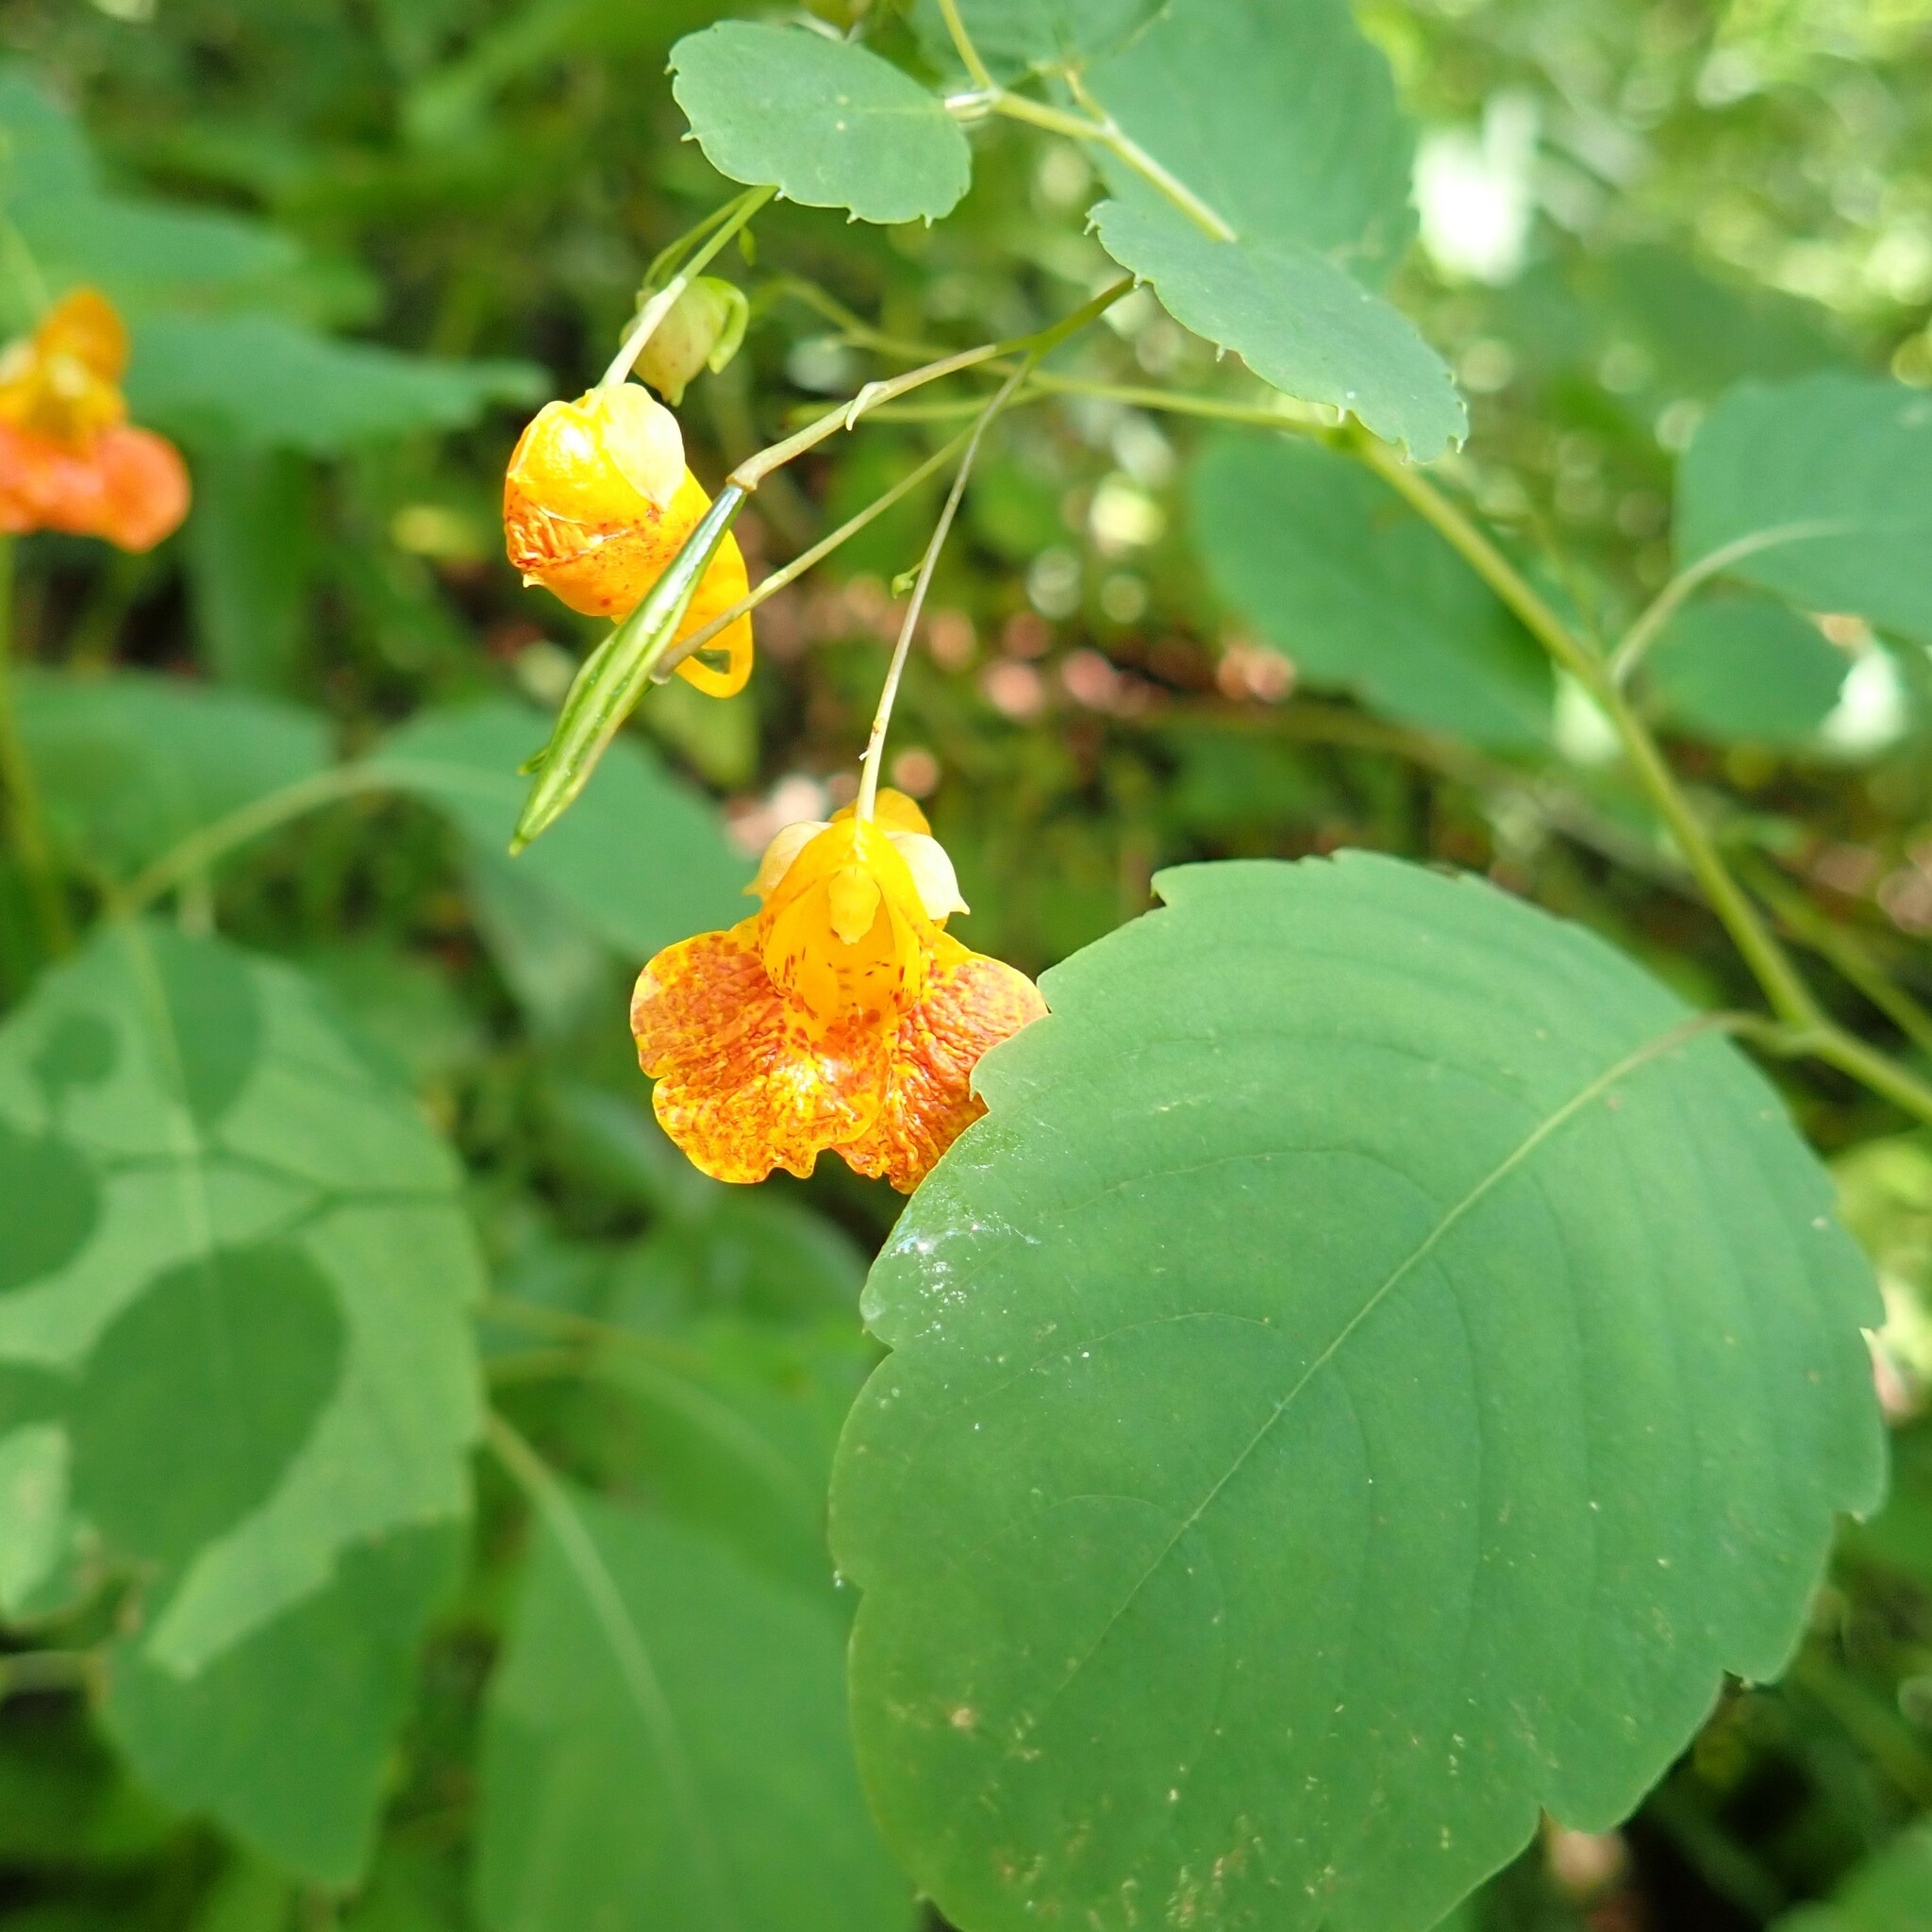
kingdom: Plantae
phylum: Tracheophyta
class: Magnoliopsida
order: Ericales
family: Balsaminaceae
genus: Impatiens
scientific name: Impatiens capensis
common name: Orange balsam
